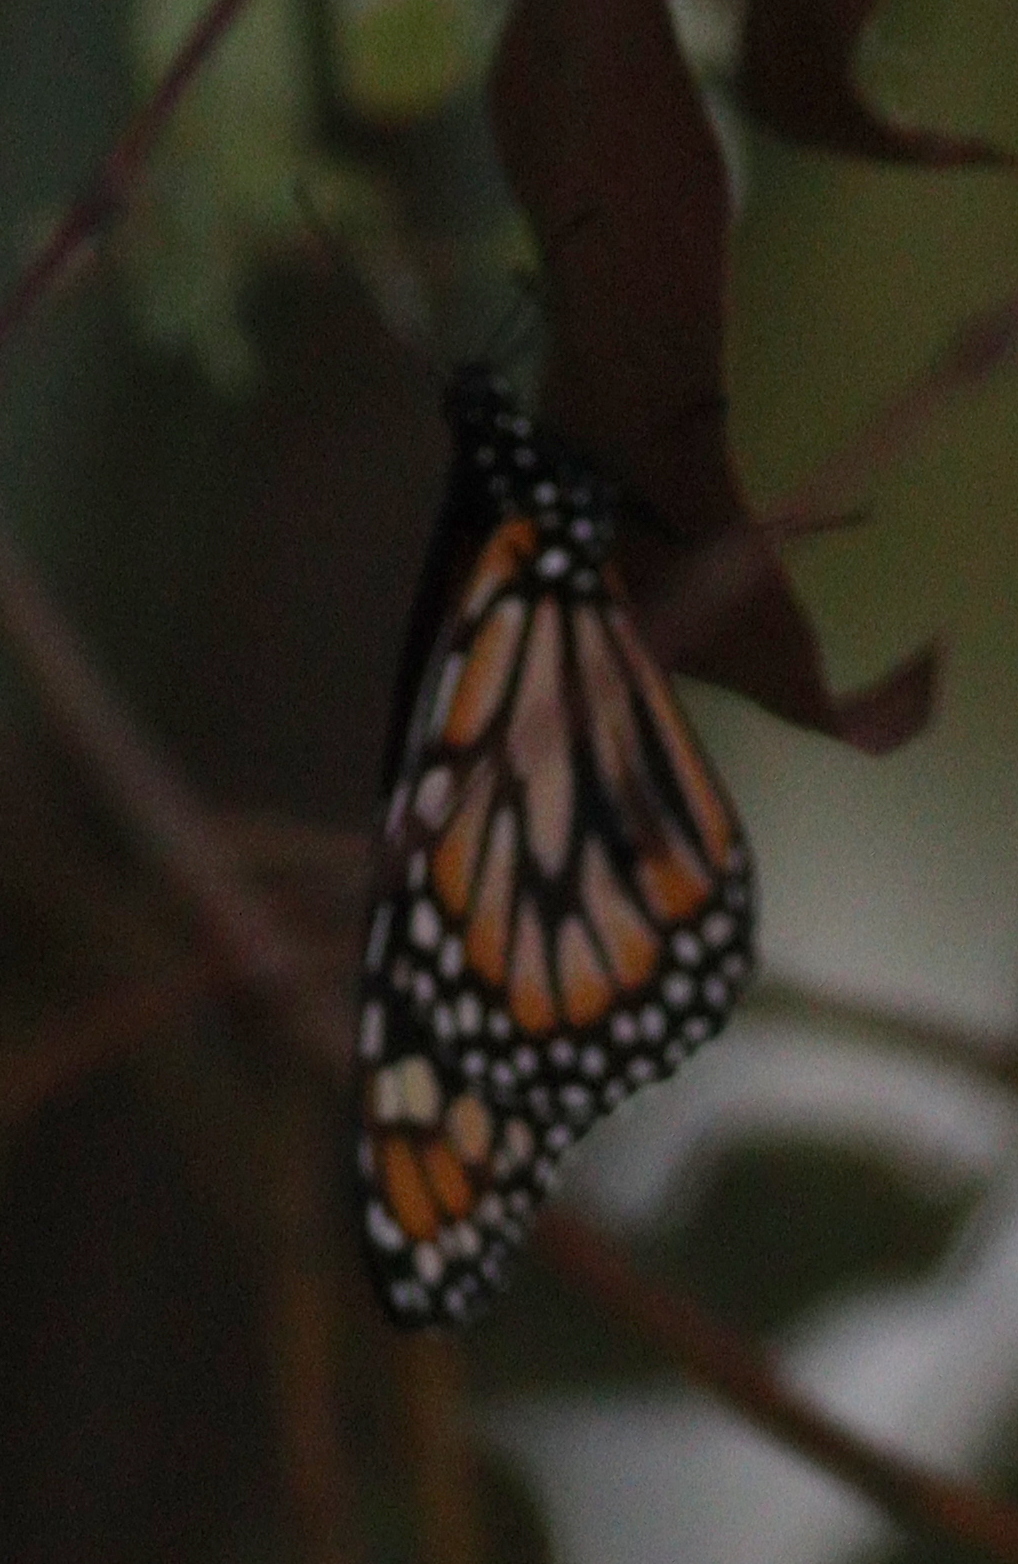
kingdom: Animalia
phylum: Arthropoda
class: Insecta
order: Lepidoptera
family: Nymphalidae
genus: Danaus
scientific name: Danaus erippus
